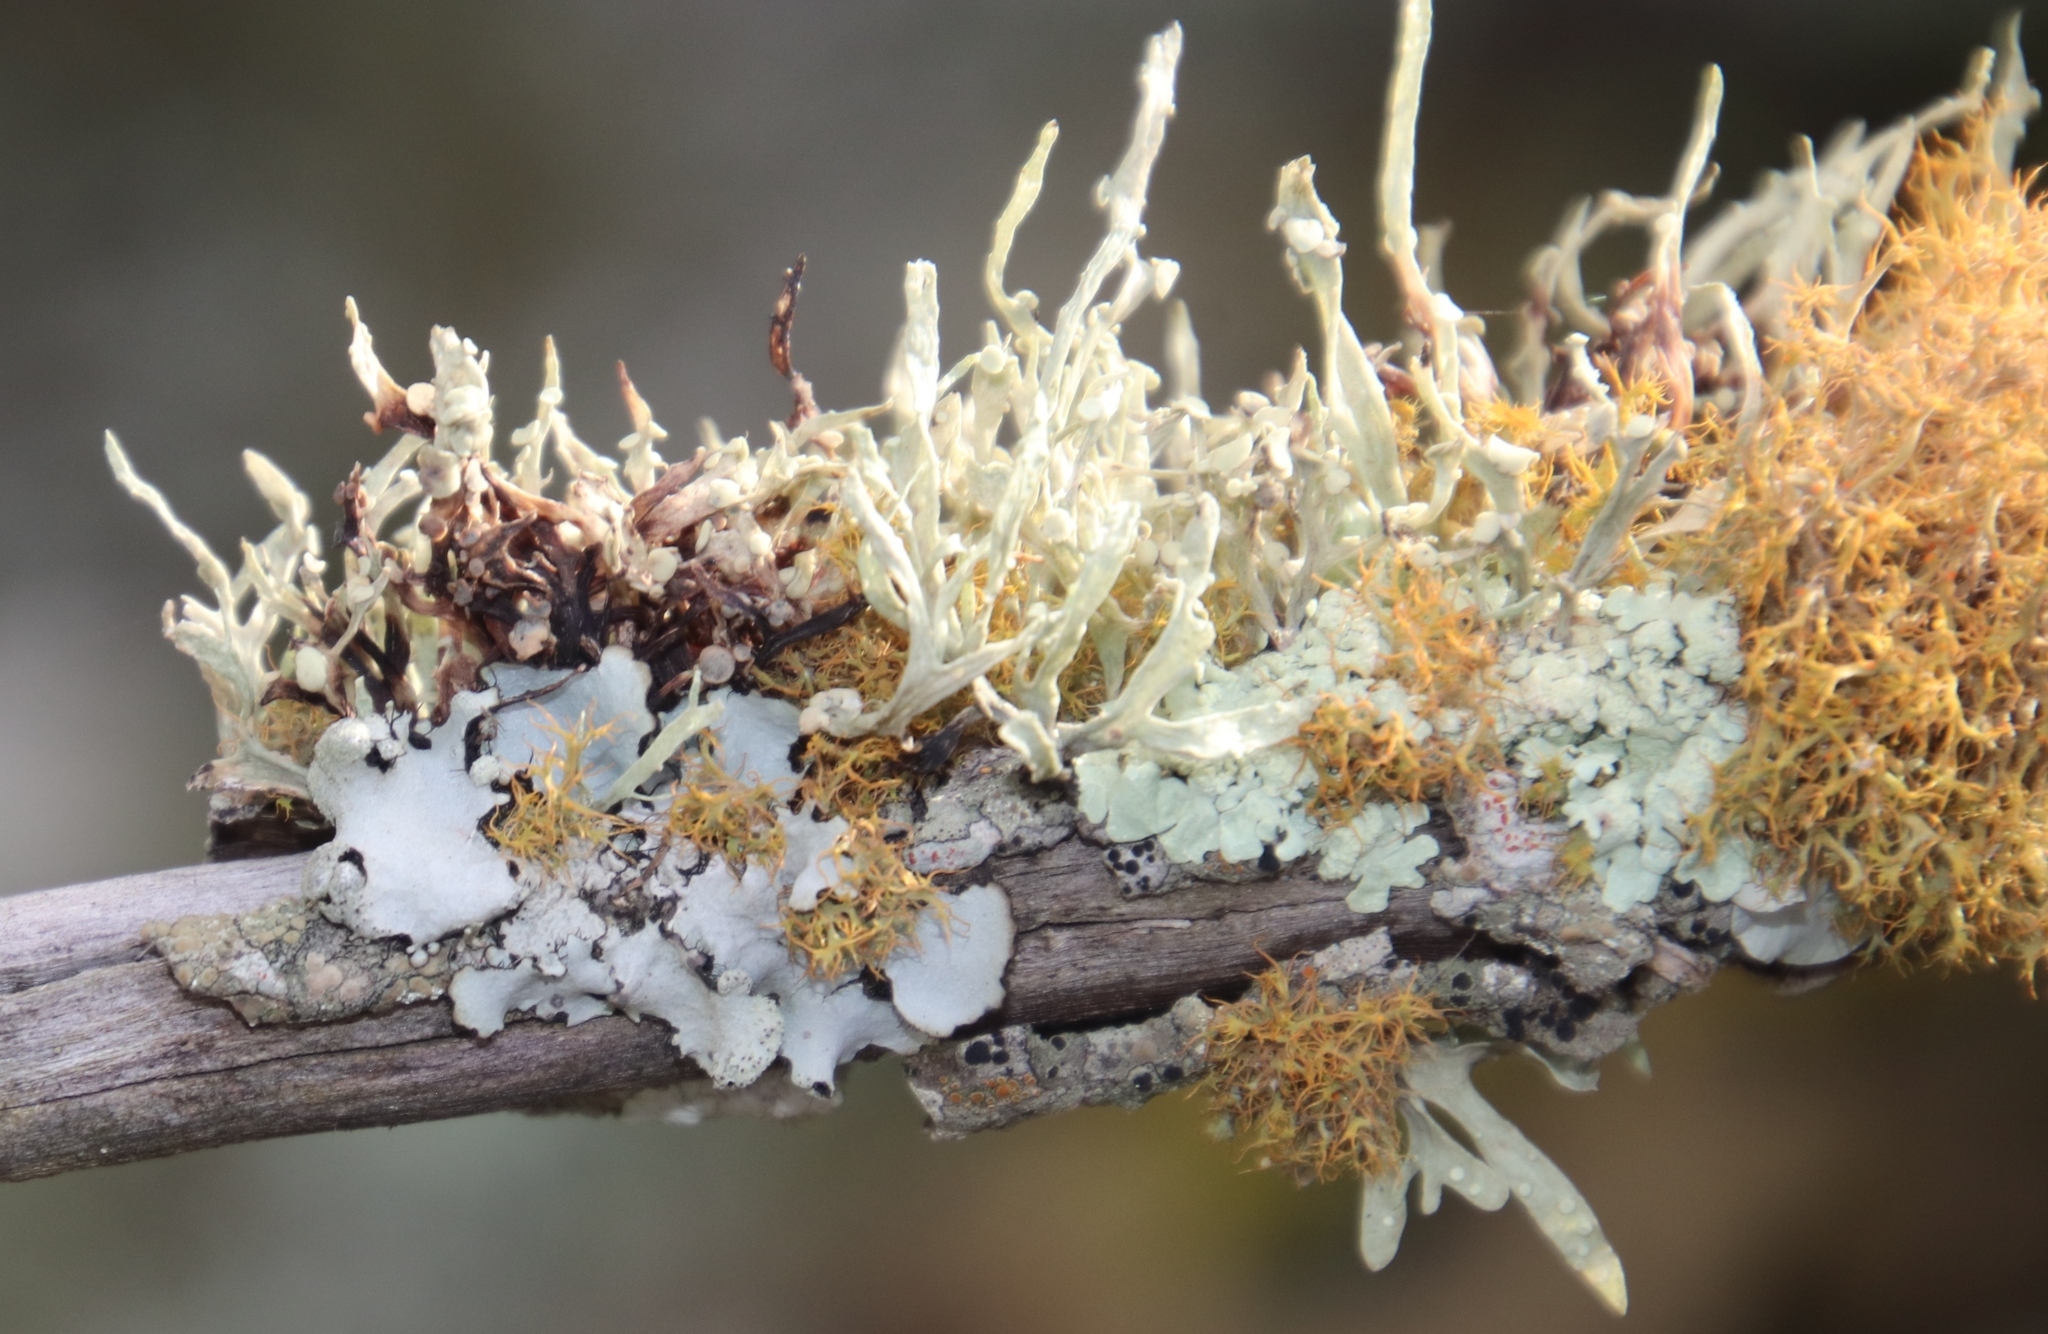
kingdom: Fungi
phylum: Ascomycota
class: Lecanoromycetes
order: Lecanorales
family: Ramalinaceae
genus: Ramalina
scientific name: Ramalina celastri
